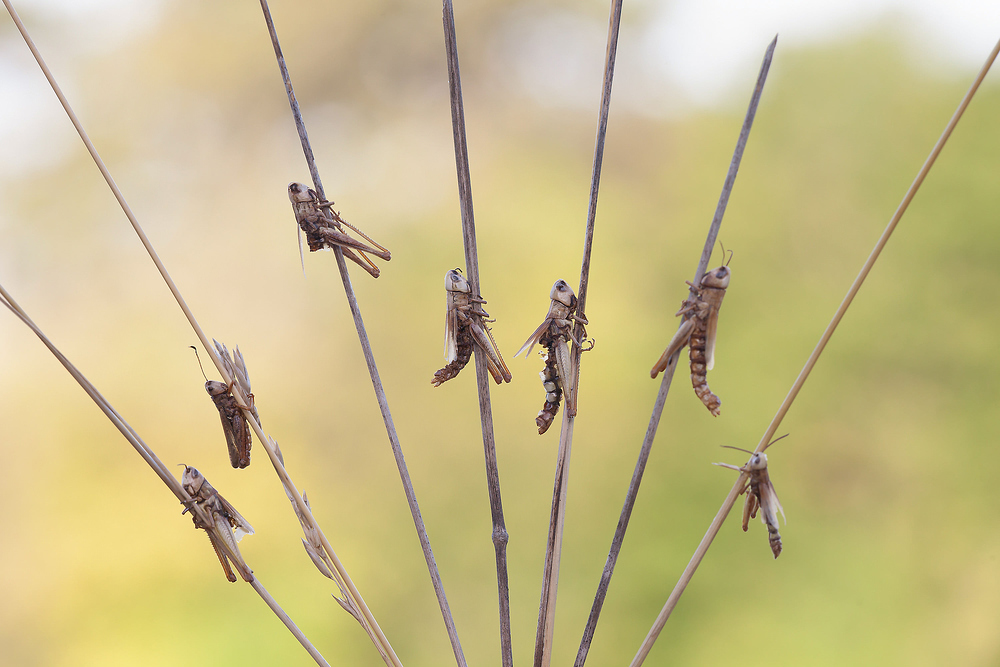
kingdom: Fungi
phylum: Entomophthoromycota
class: Entomophthoromycetes
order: Entomophthorales
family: Entomophthoraceae
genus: Entomophaga
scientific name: Entomophaga grylli
